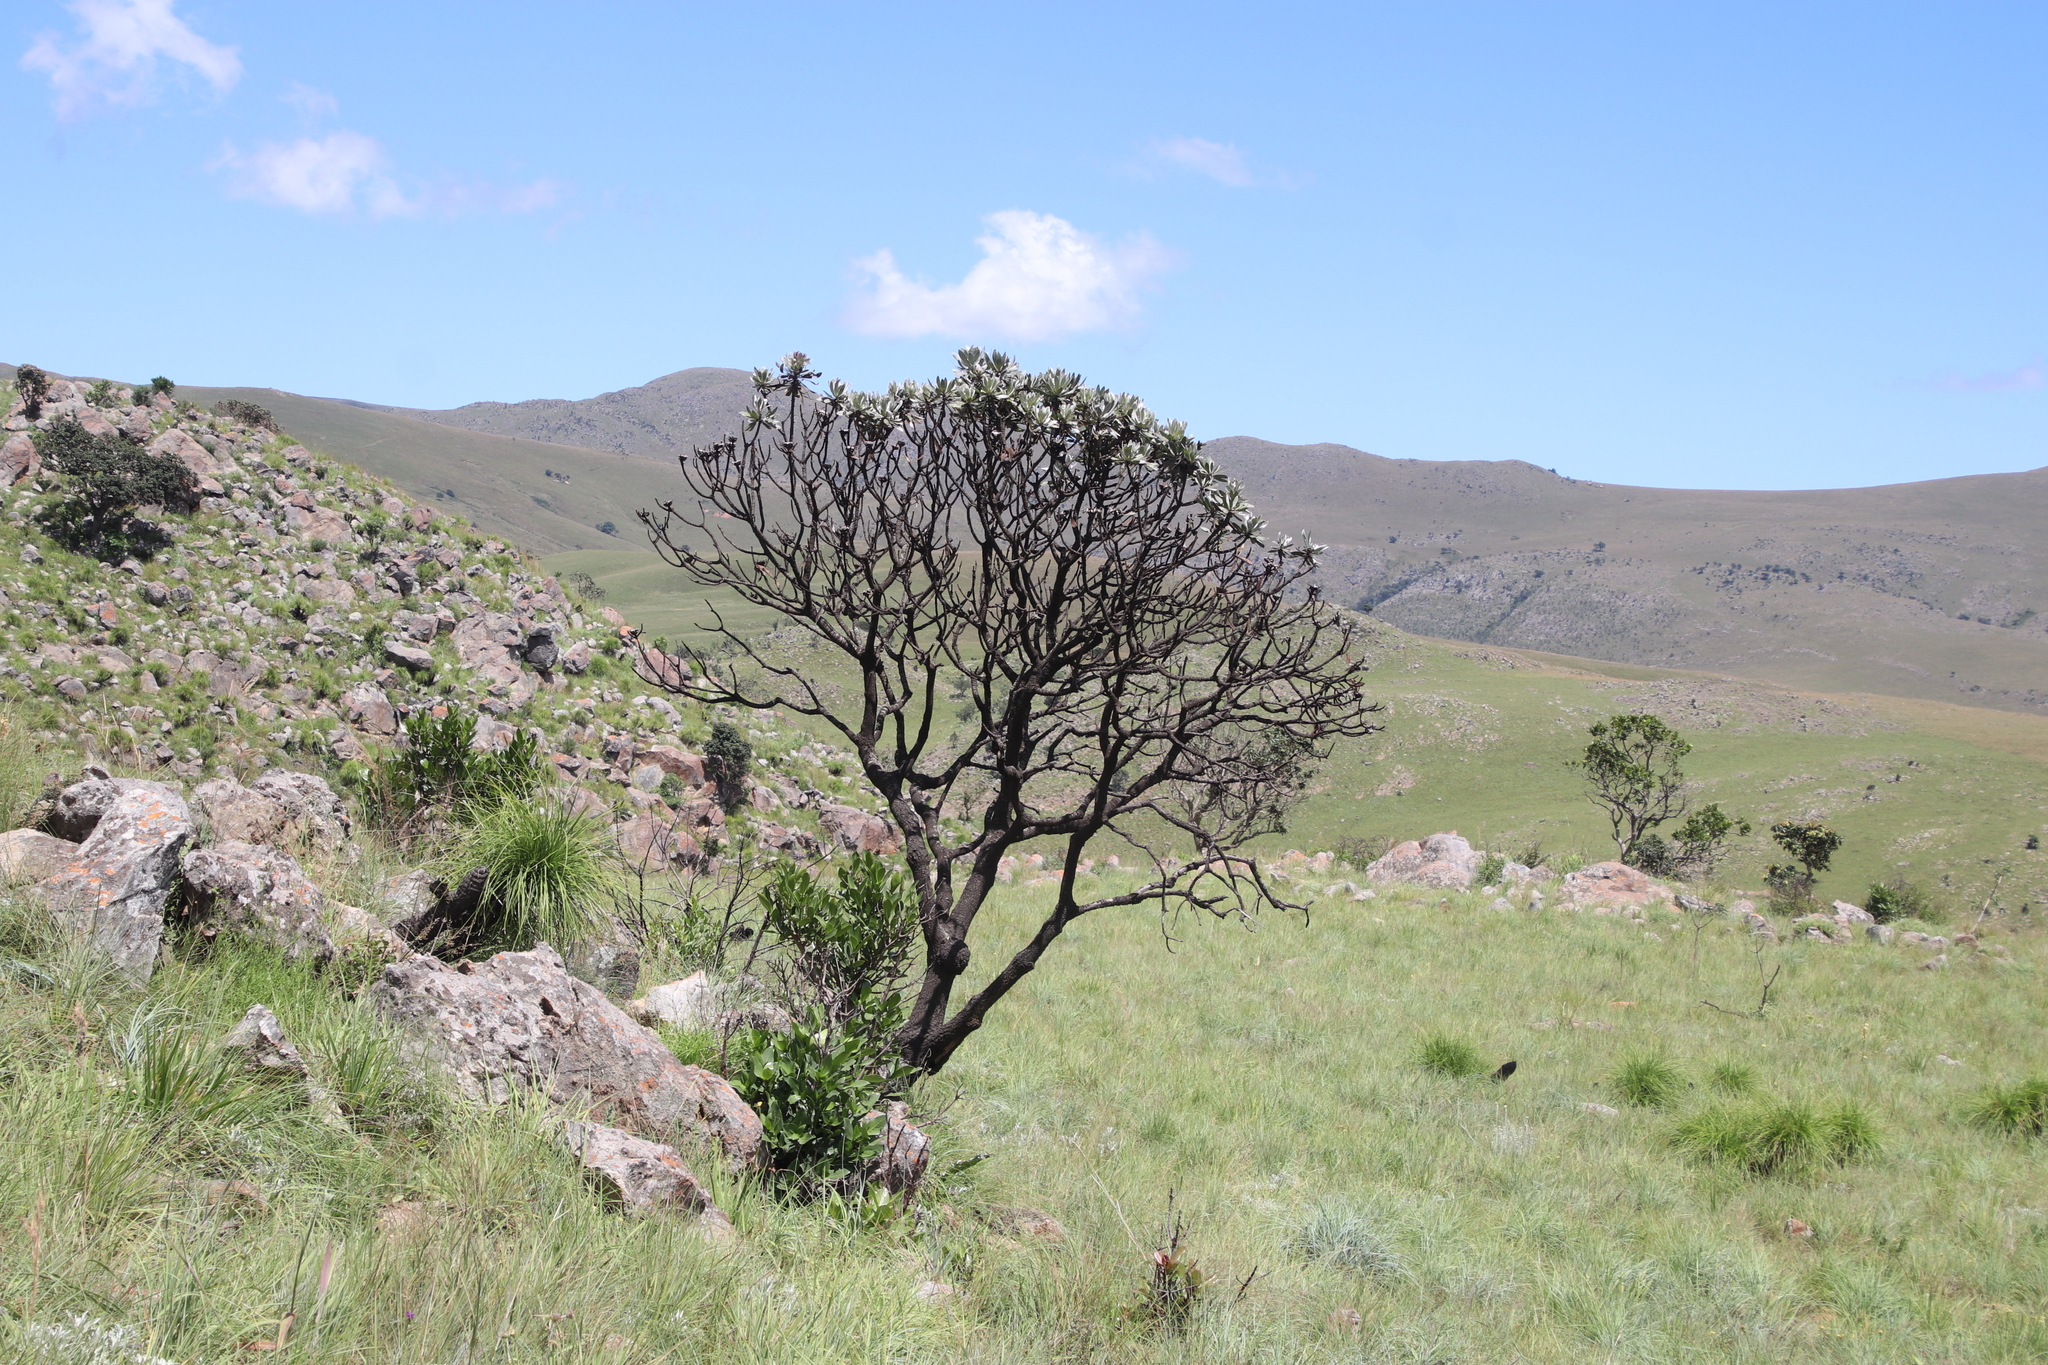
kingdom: Plantae
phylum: Tracheophyta
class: Magnoliopsida
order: Proteales
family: Proteaceae
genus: Protea
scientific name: Protea roupelliae
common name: Silver sugarbush
